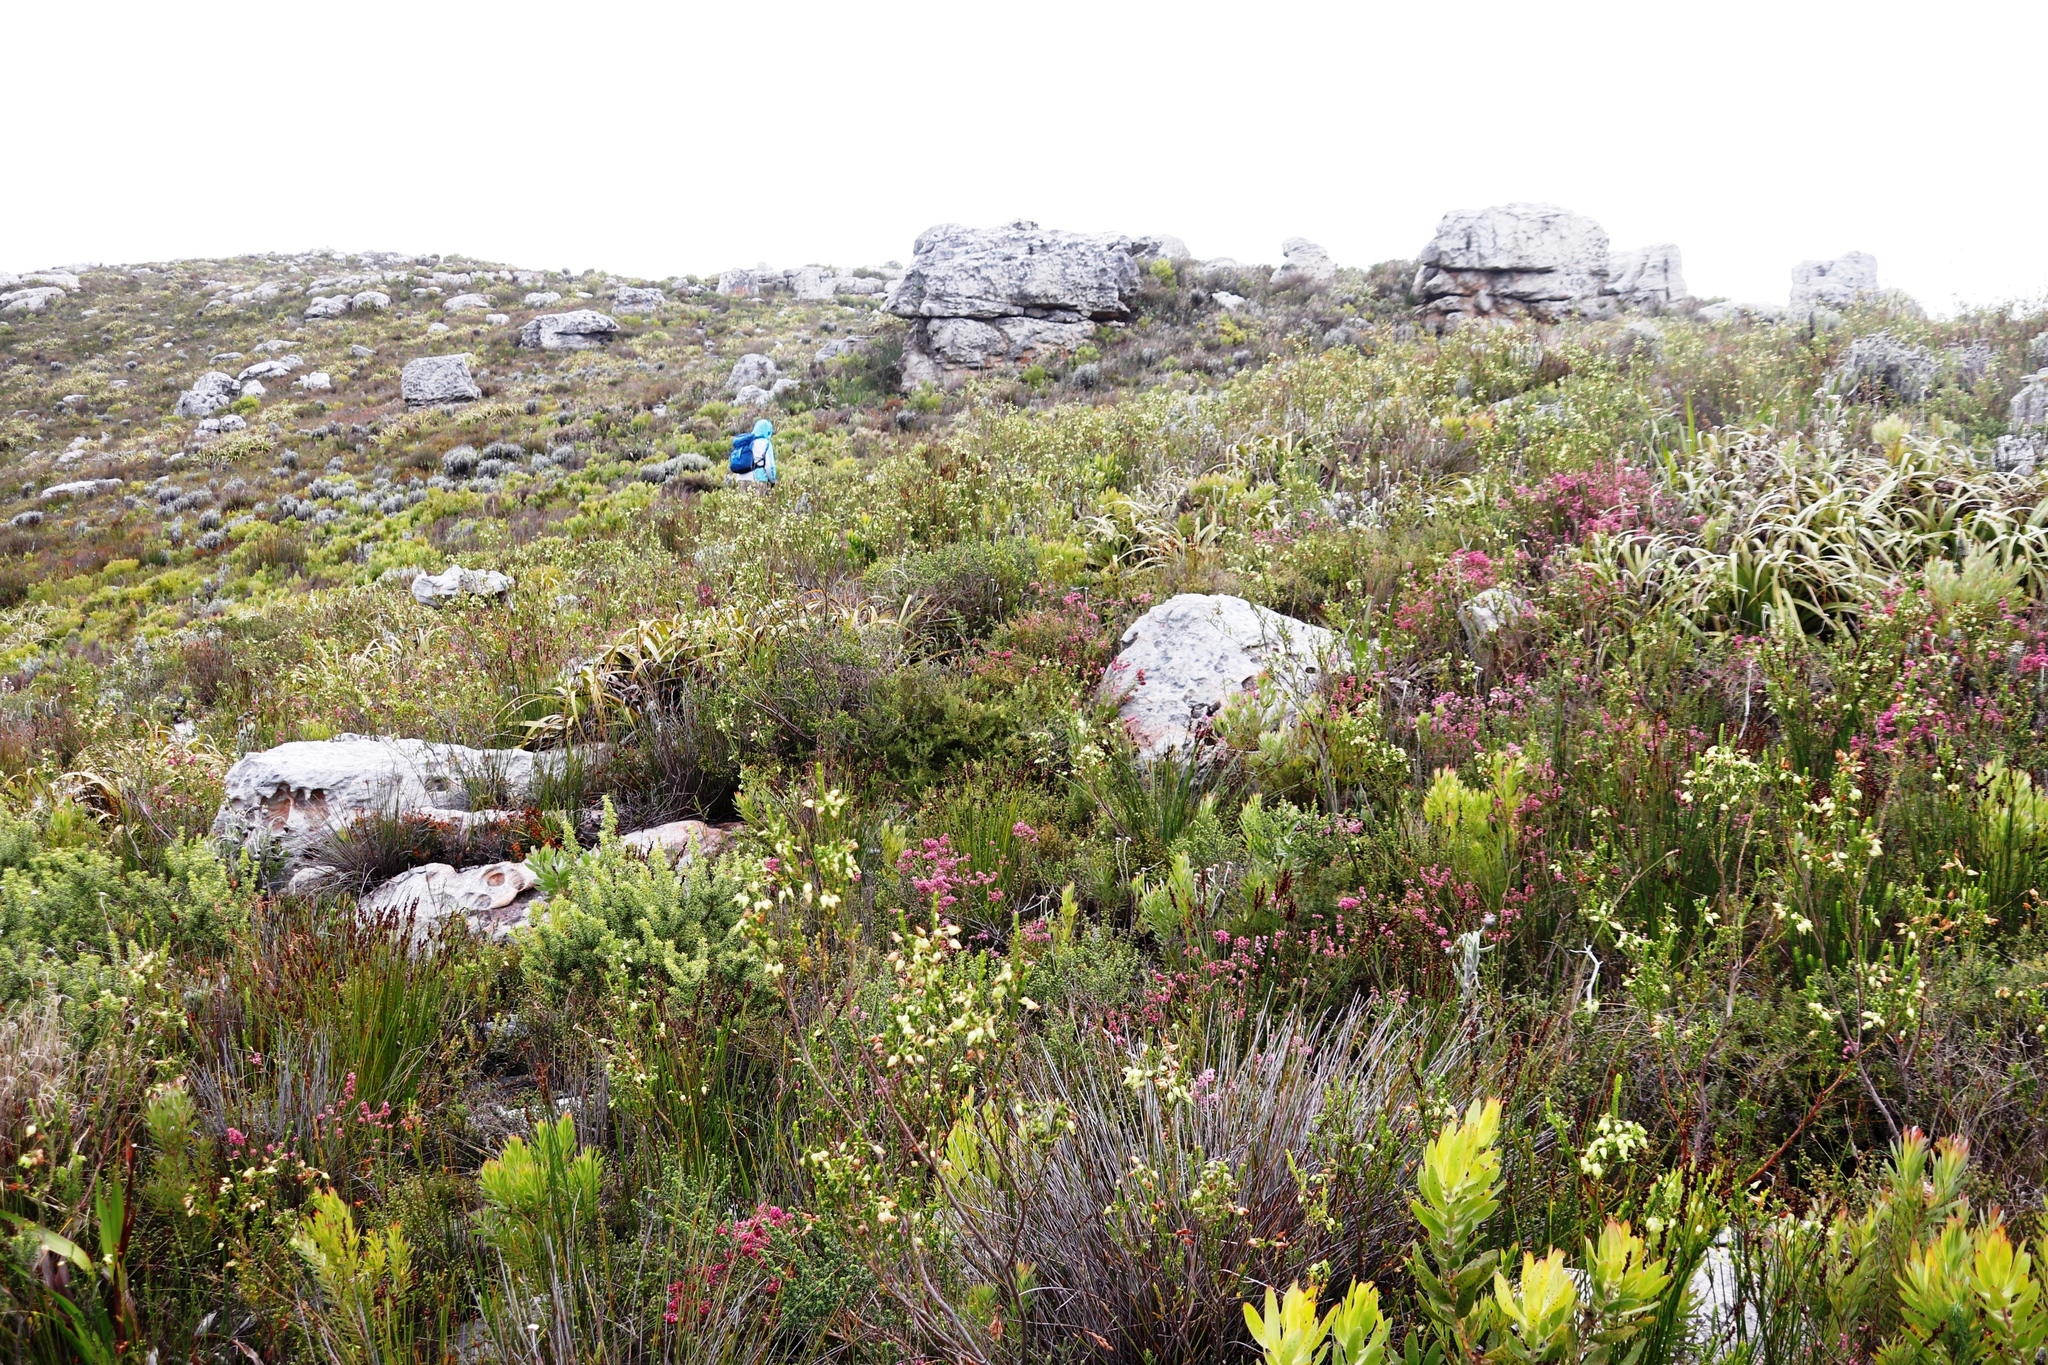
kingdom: Plantae
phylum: Tracheophyta
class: Magnoliopsida
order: Ericales
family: Ericaceae
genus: Erica
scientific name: Erica urna-viridis
